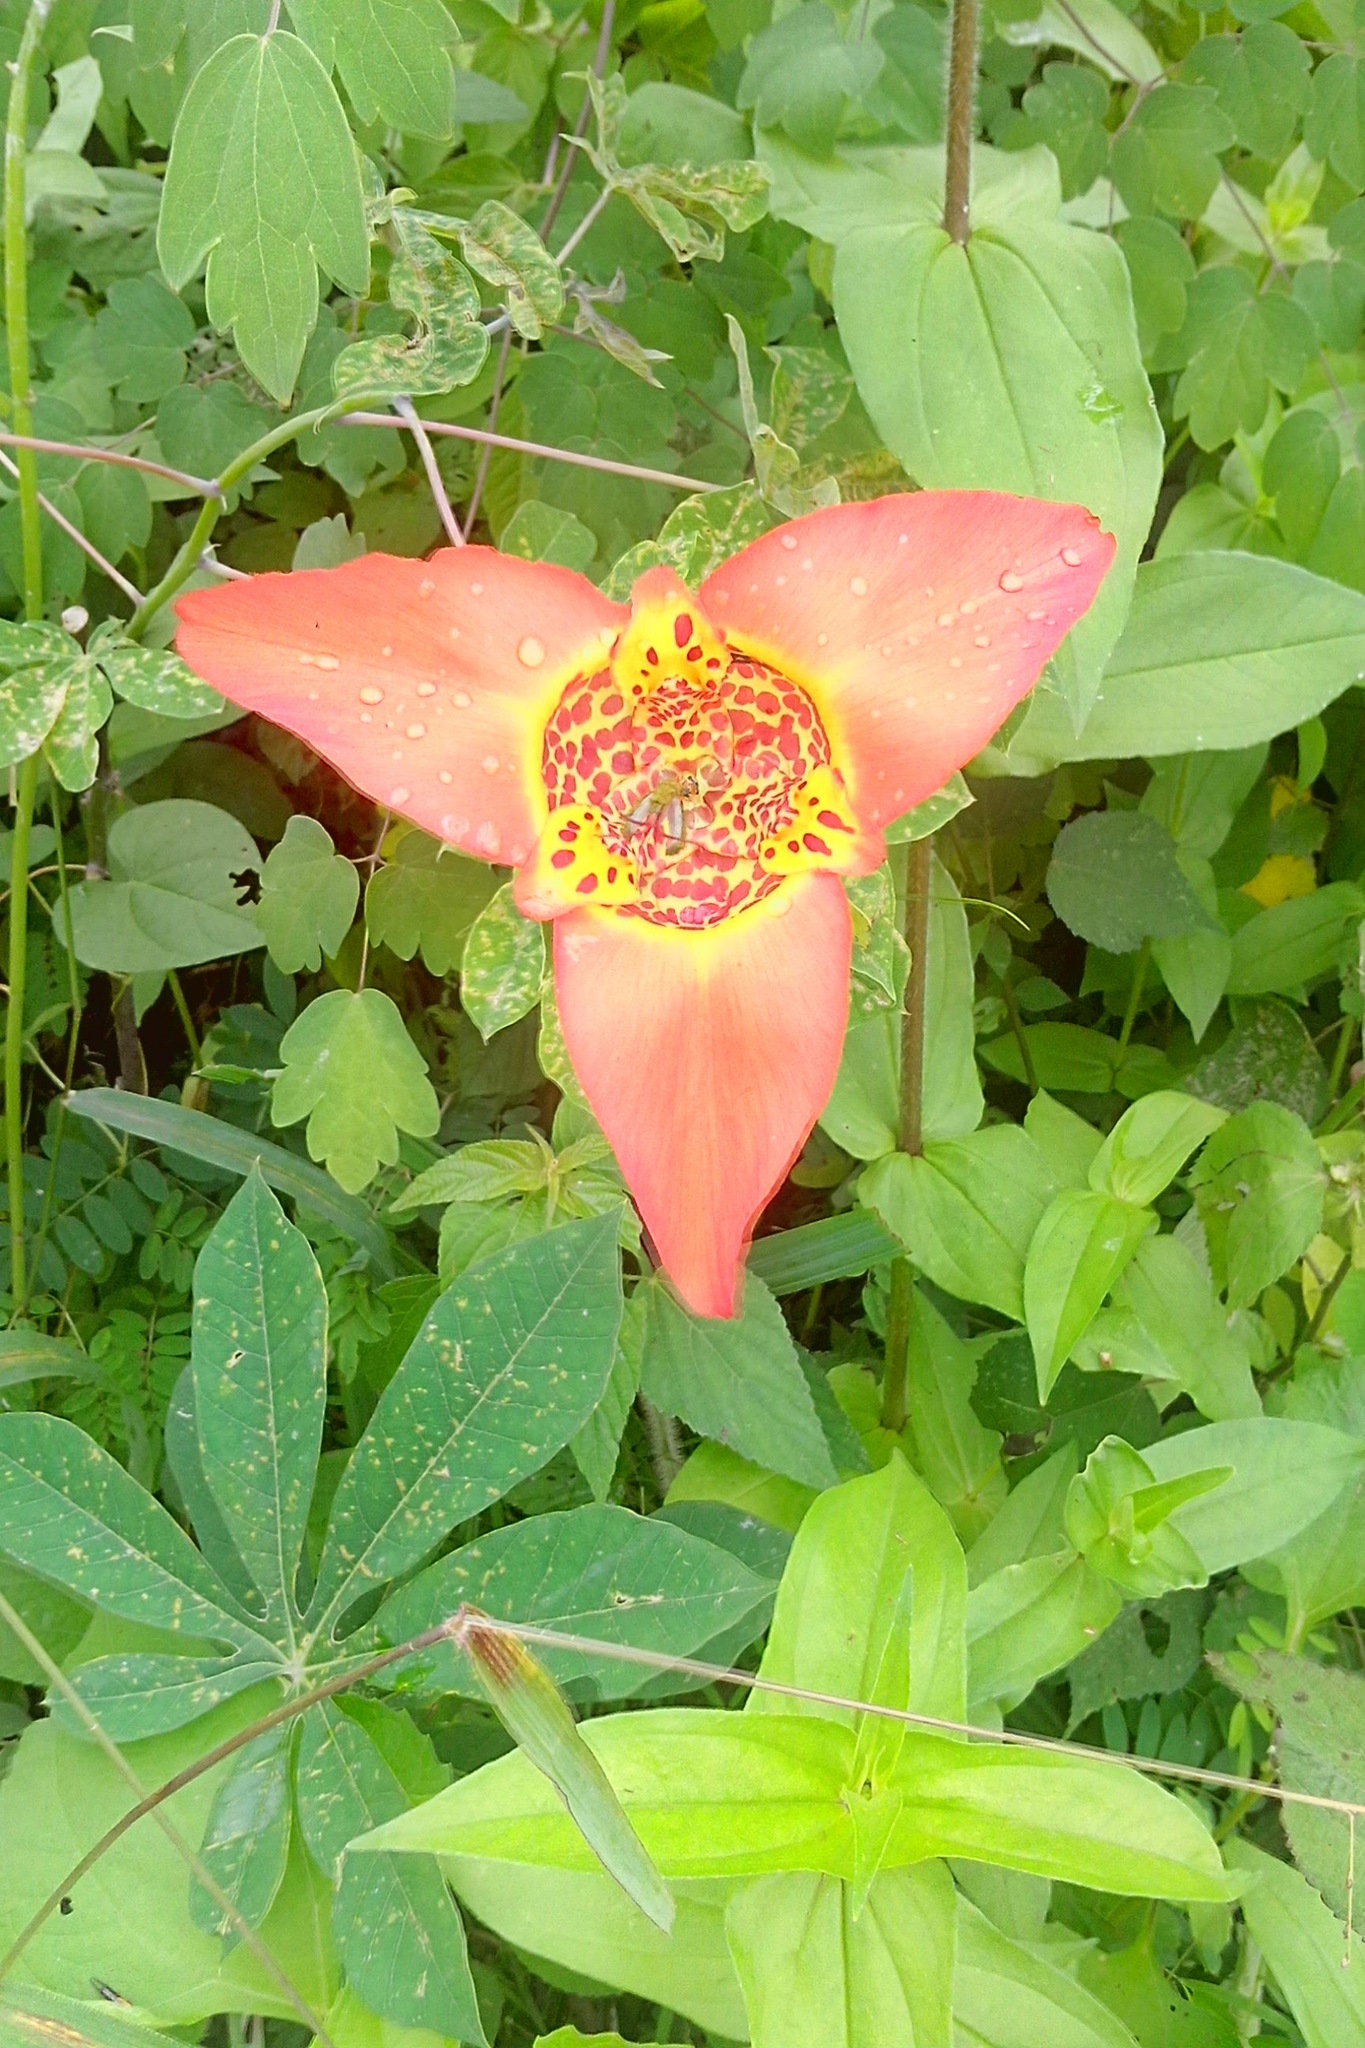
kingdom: Plantae
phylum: Tracheophyta
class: Liliopsida
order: Asparagales
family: Iridaceae
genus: Tigridia
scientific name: Tigridia pavonia
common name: Peacock-flower
